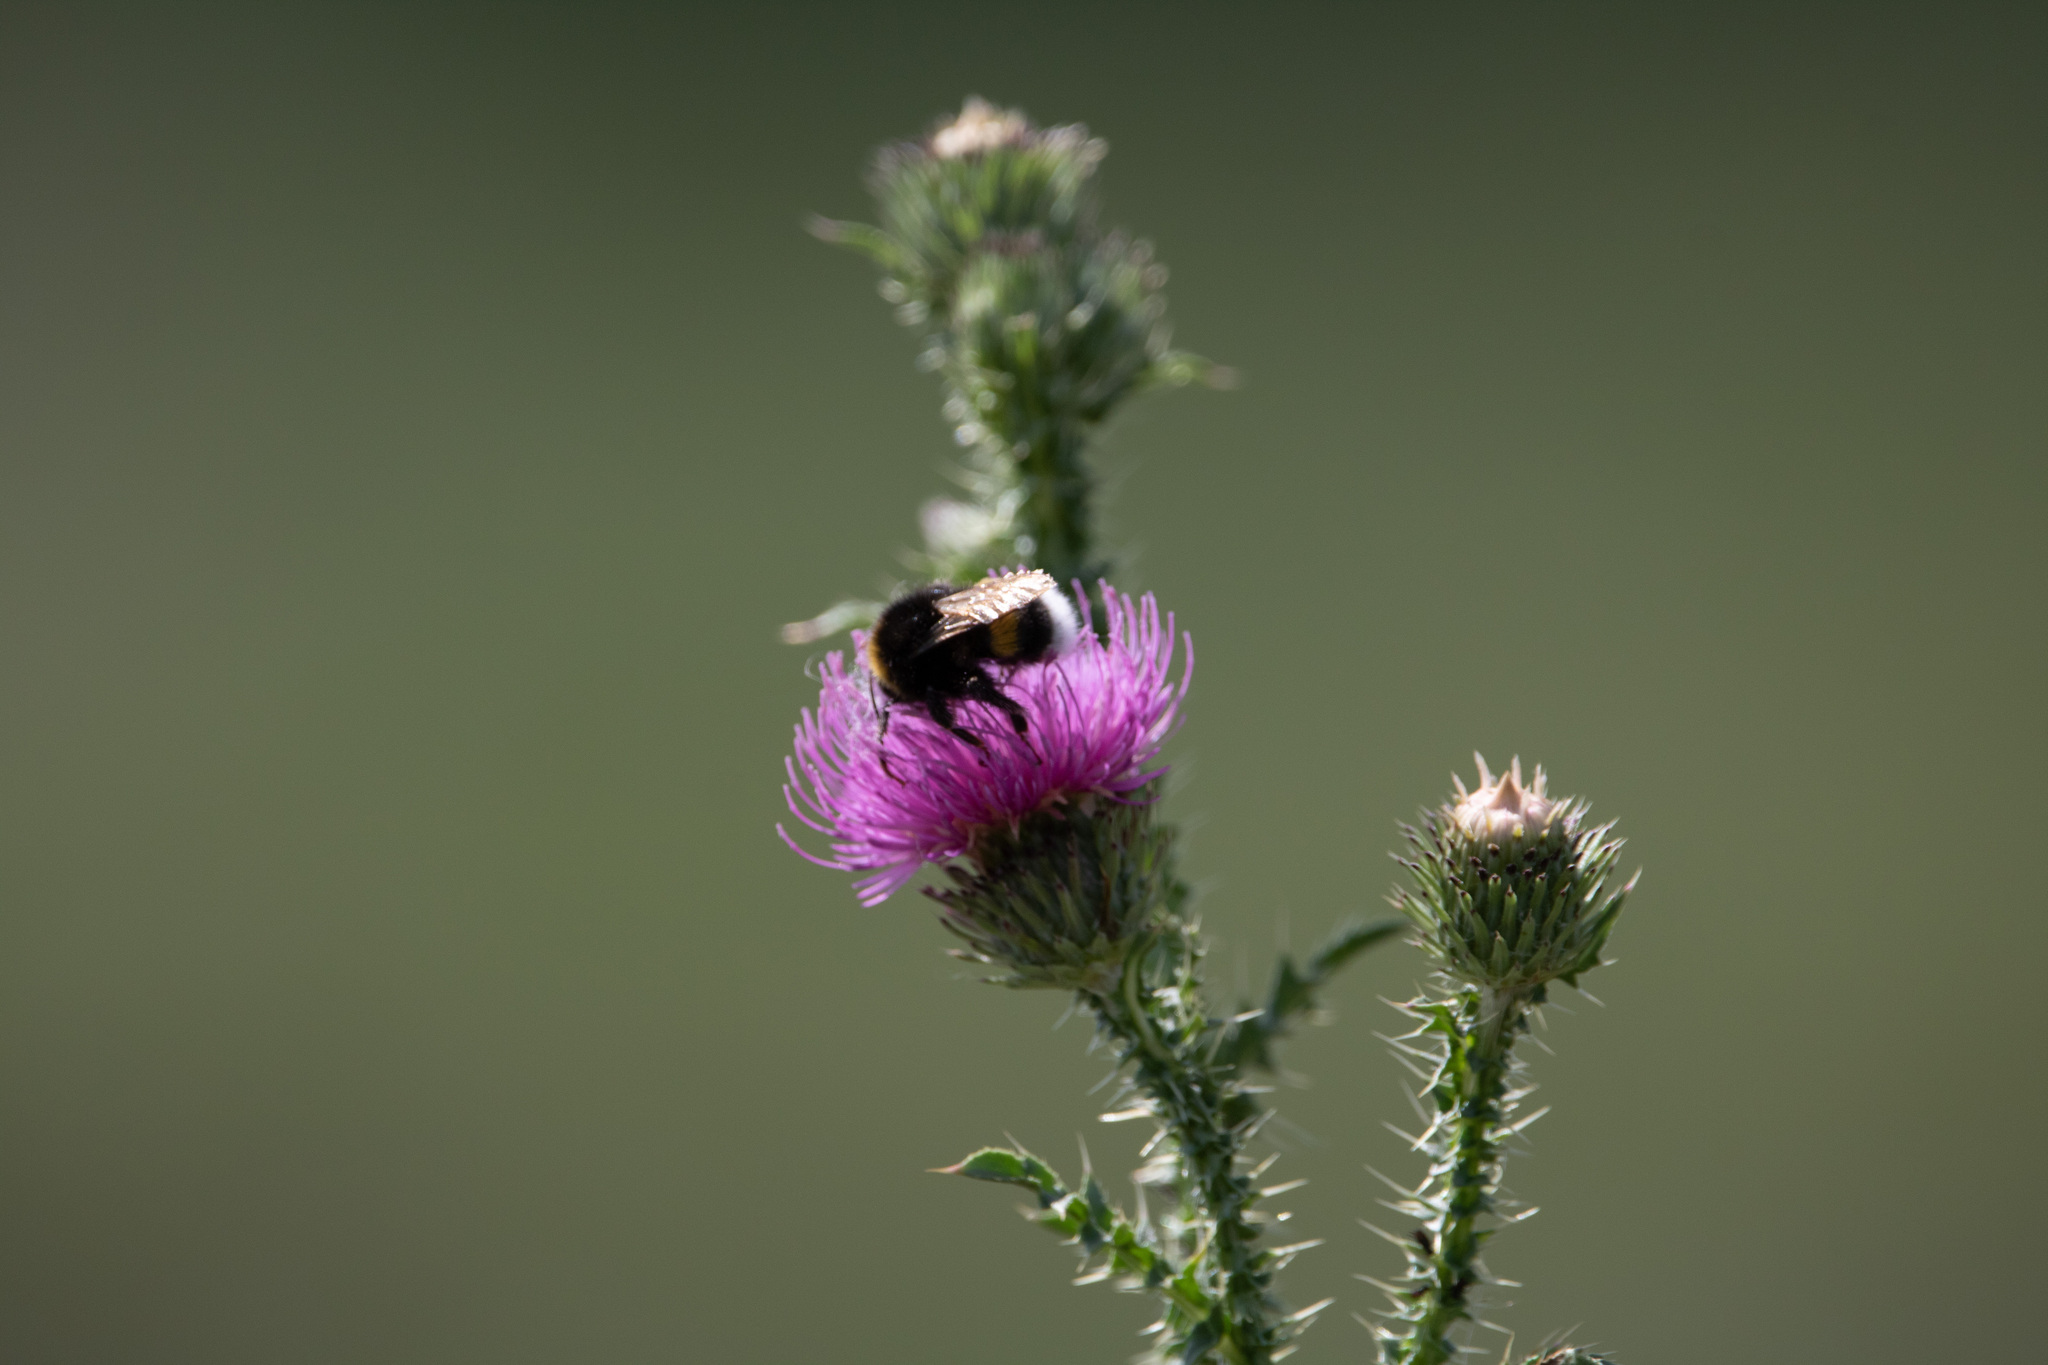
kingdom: Animalia
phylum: Arthropoda
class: Insecta
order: Hymenoptera
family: Apidae
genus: Bombus
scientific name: Bombus
